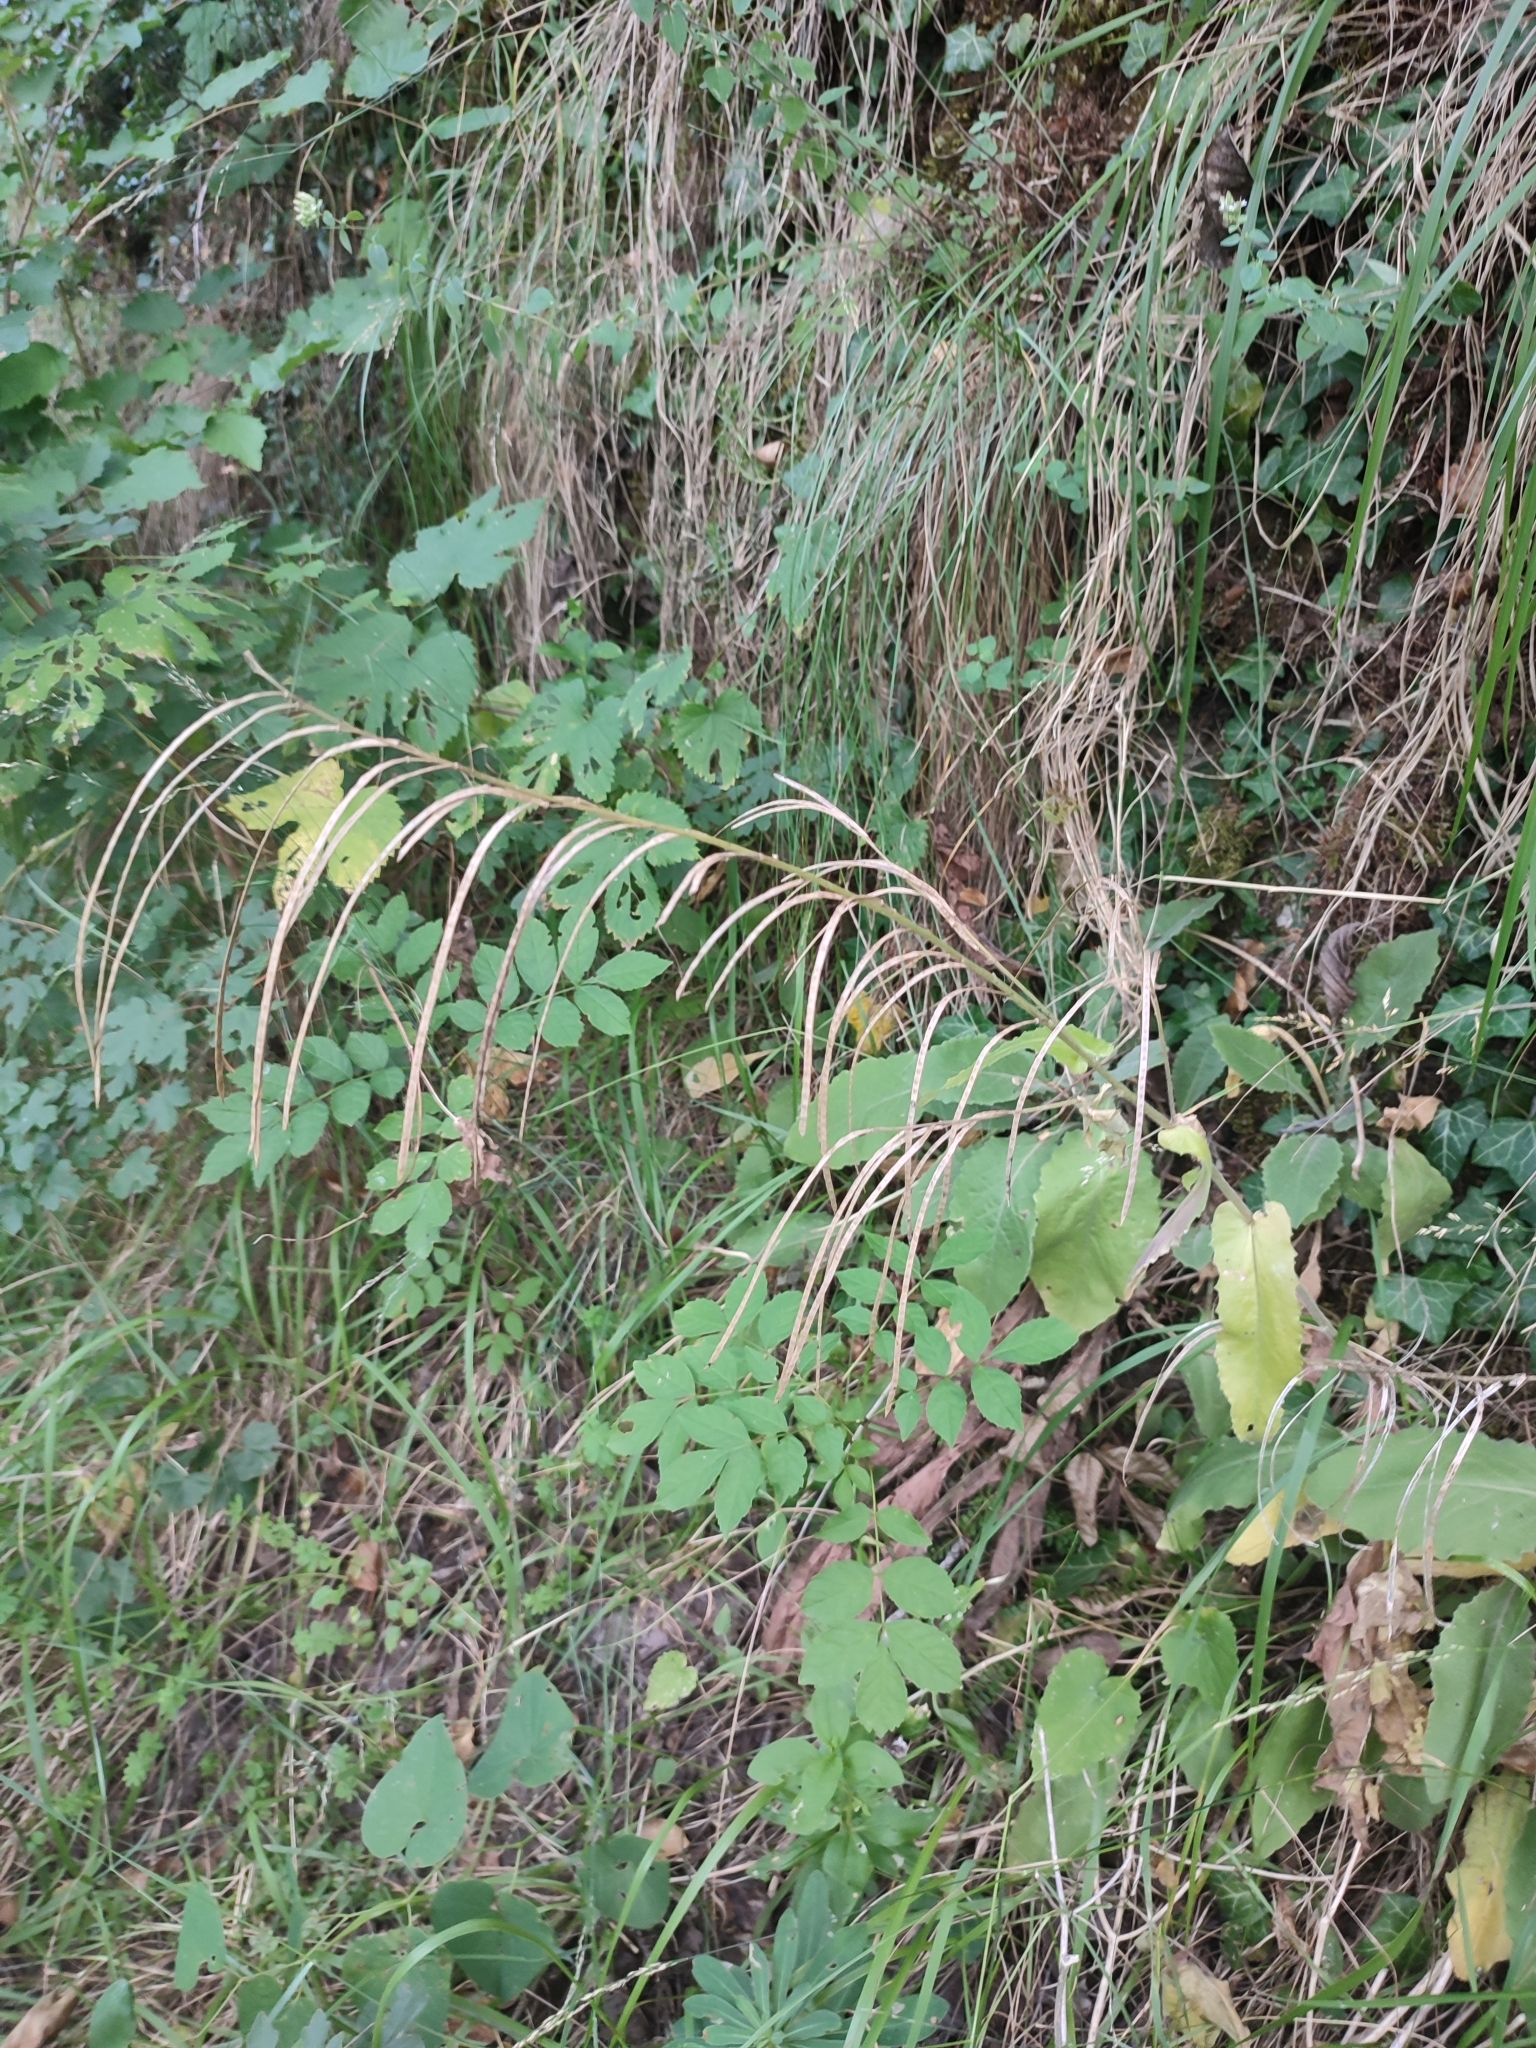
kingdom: Plantae
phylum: Tracheophyta
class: Magnoliopsida
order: Brassicales
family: Brassicaceae
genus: Pseudoturritis
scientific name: Pseudoturritis turrita
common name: Tower cress
